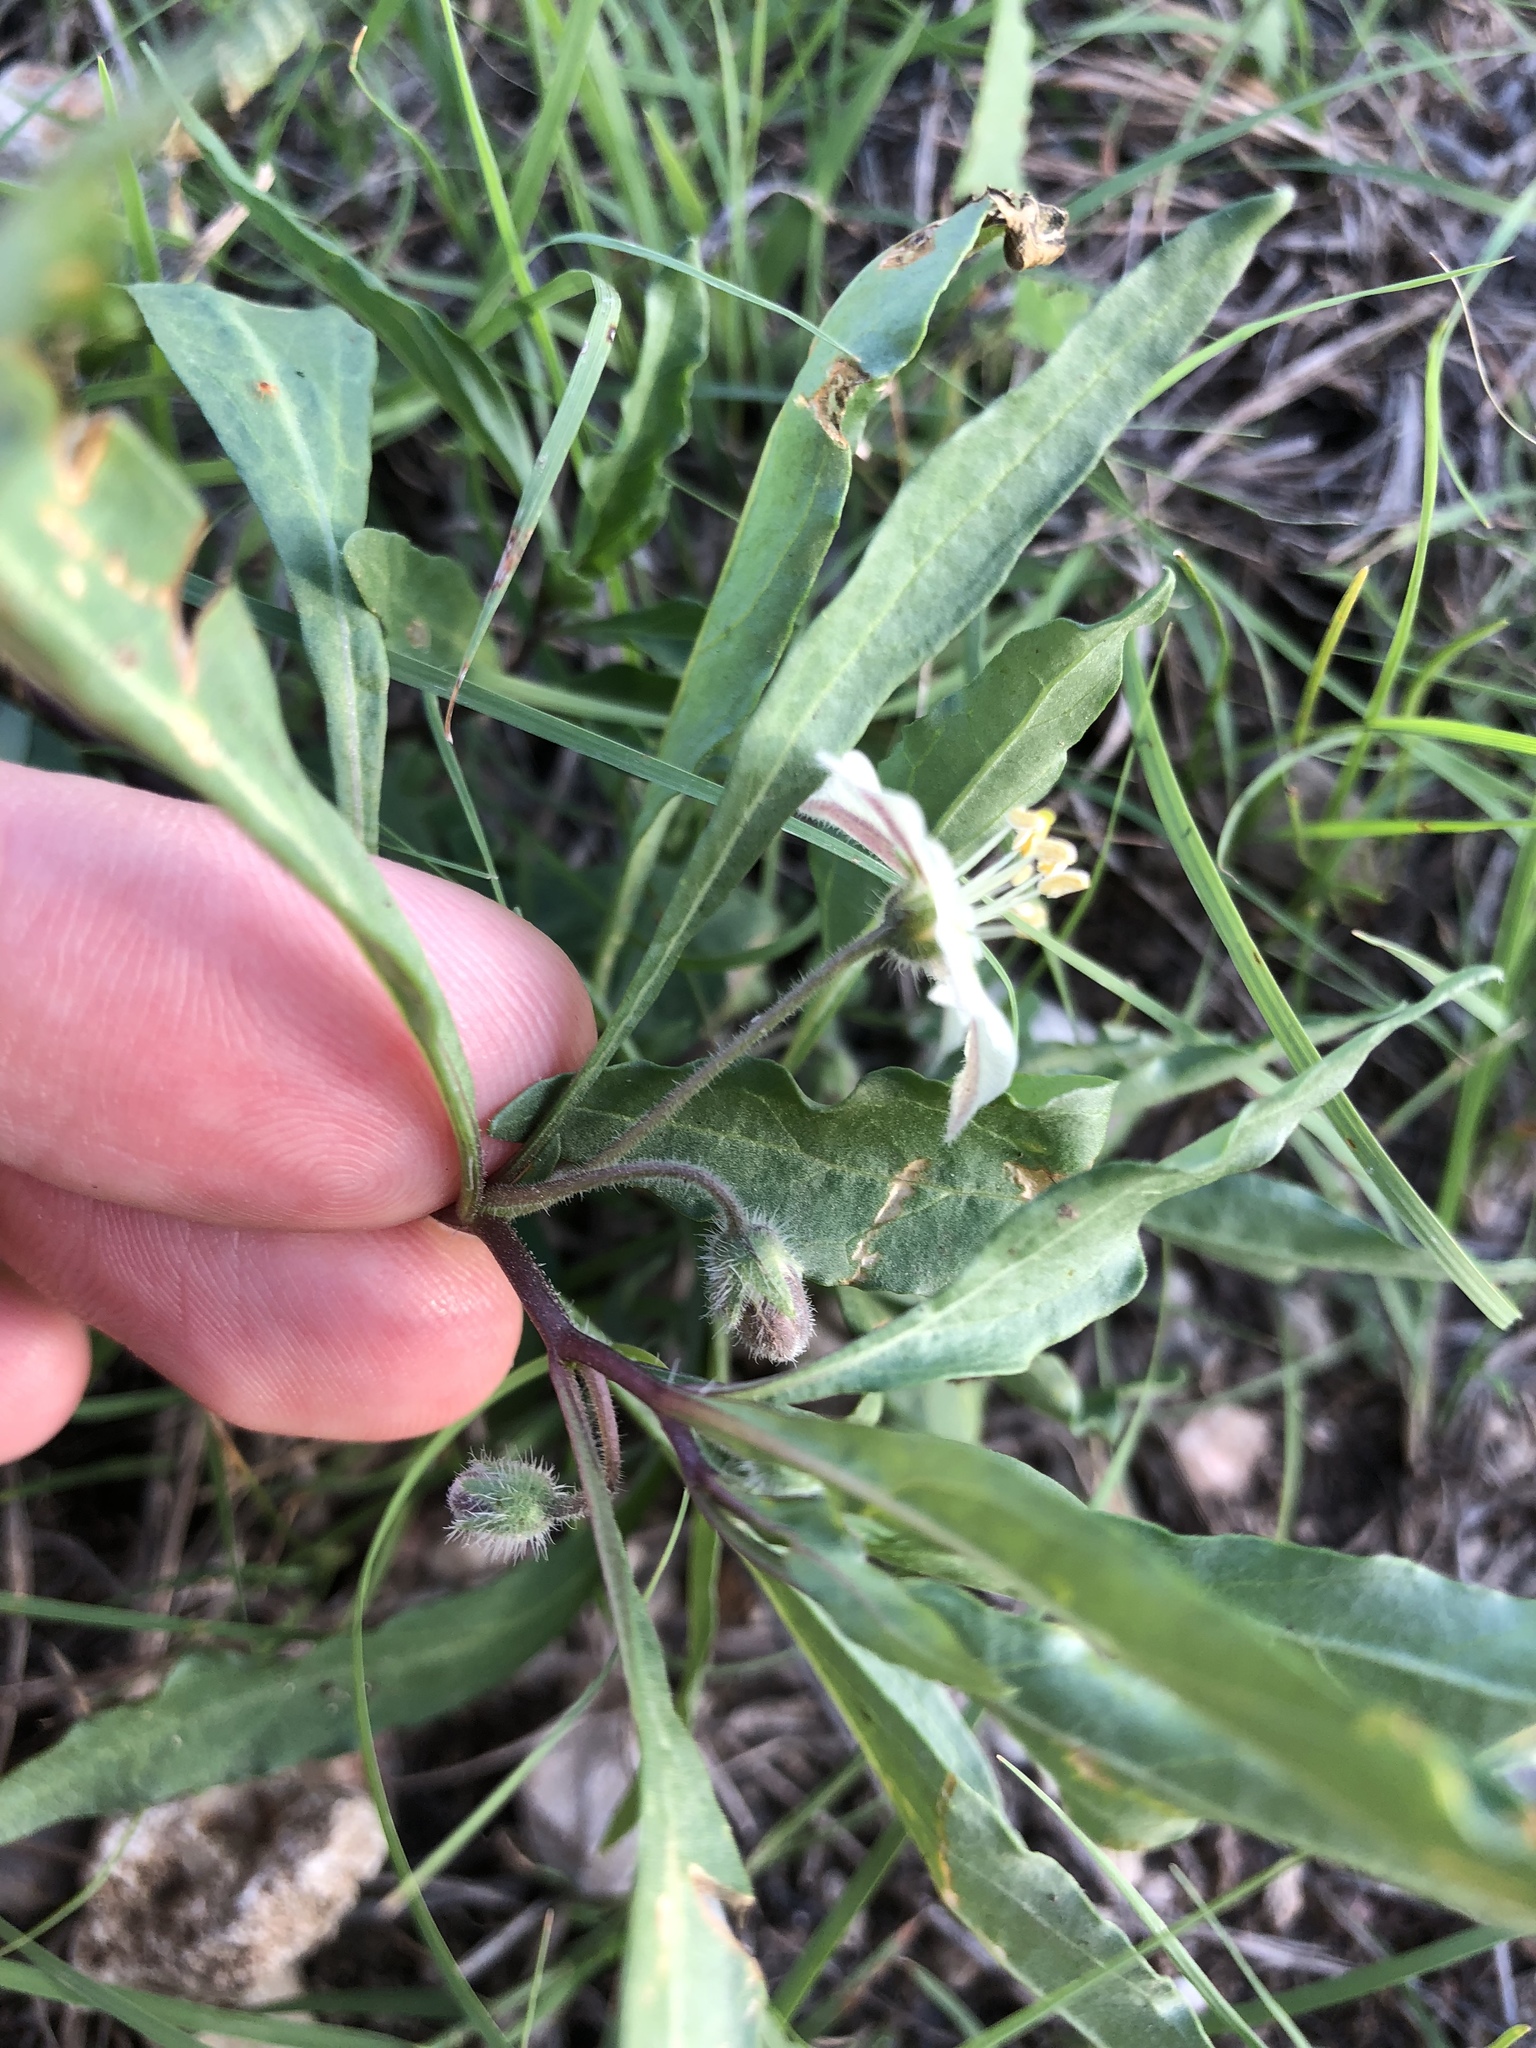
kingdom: Plantae
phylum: Tracheophyta
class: Magnoliopsida
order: Solanales
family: Solanaceae
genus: Chamaesaracha
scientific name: Chamaesaracha edwardsiana
